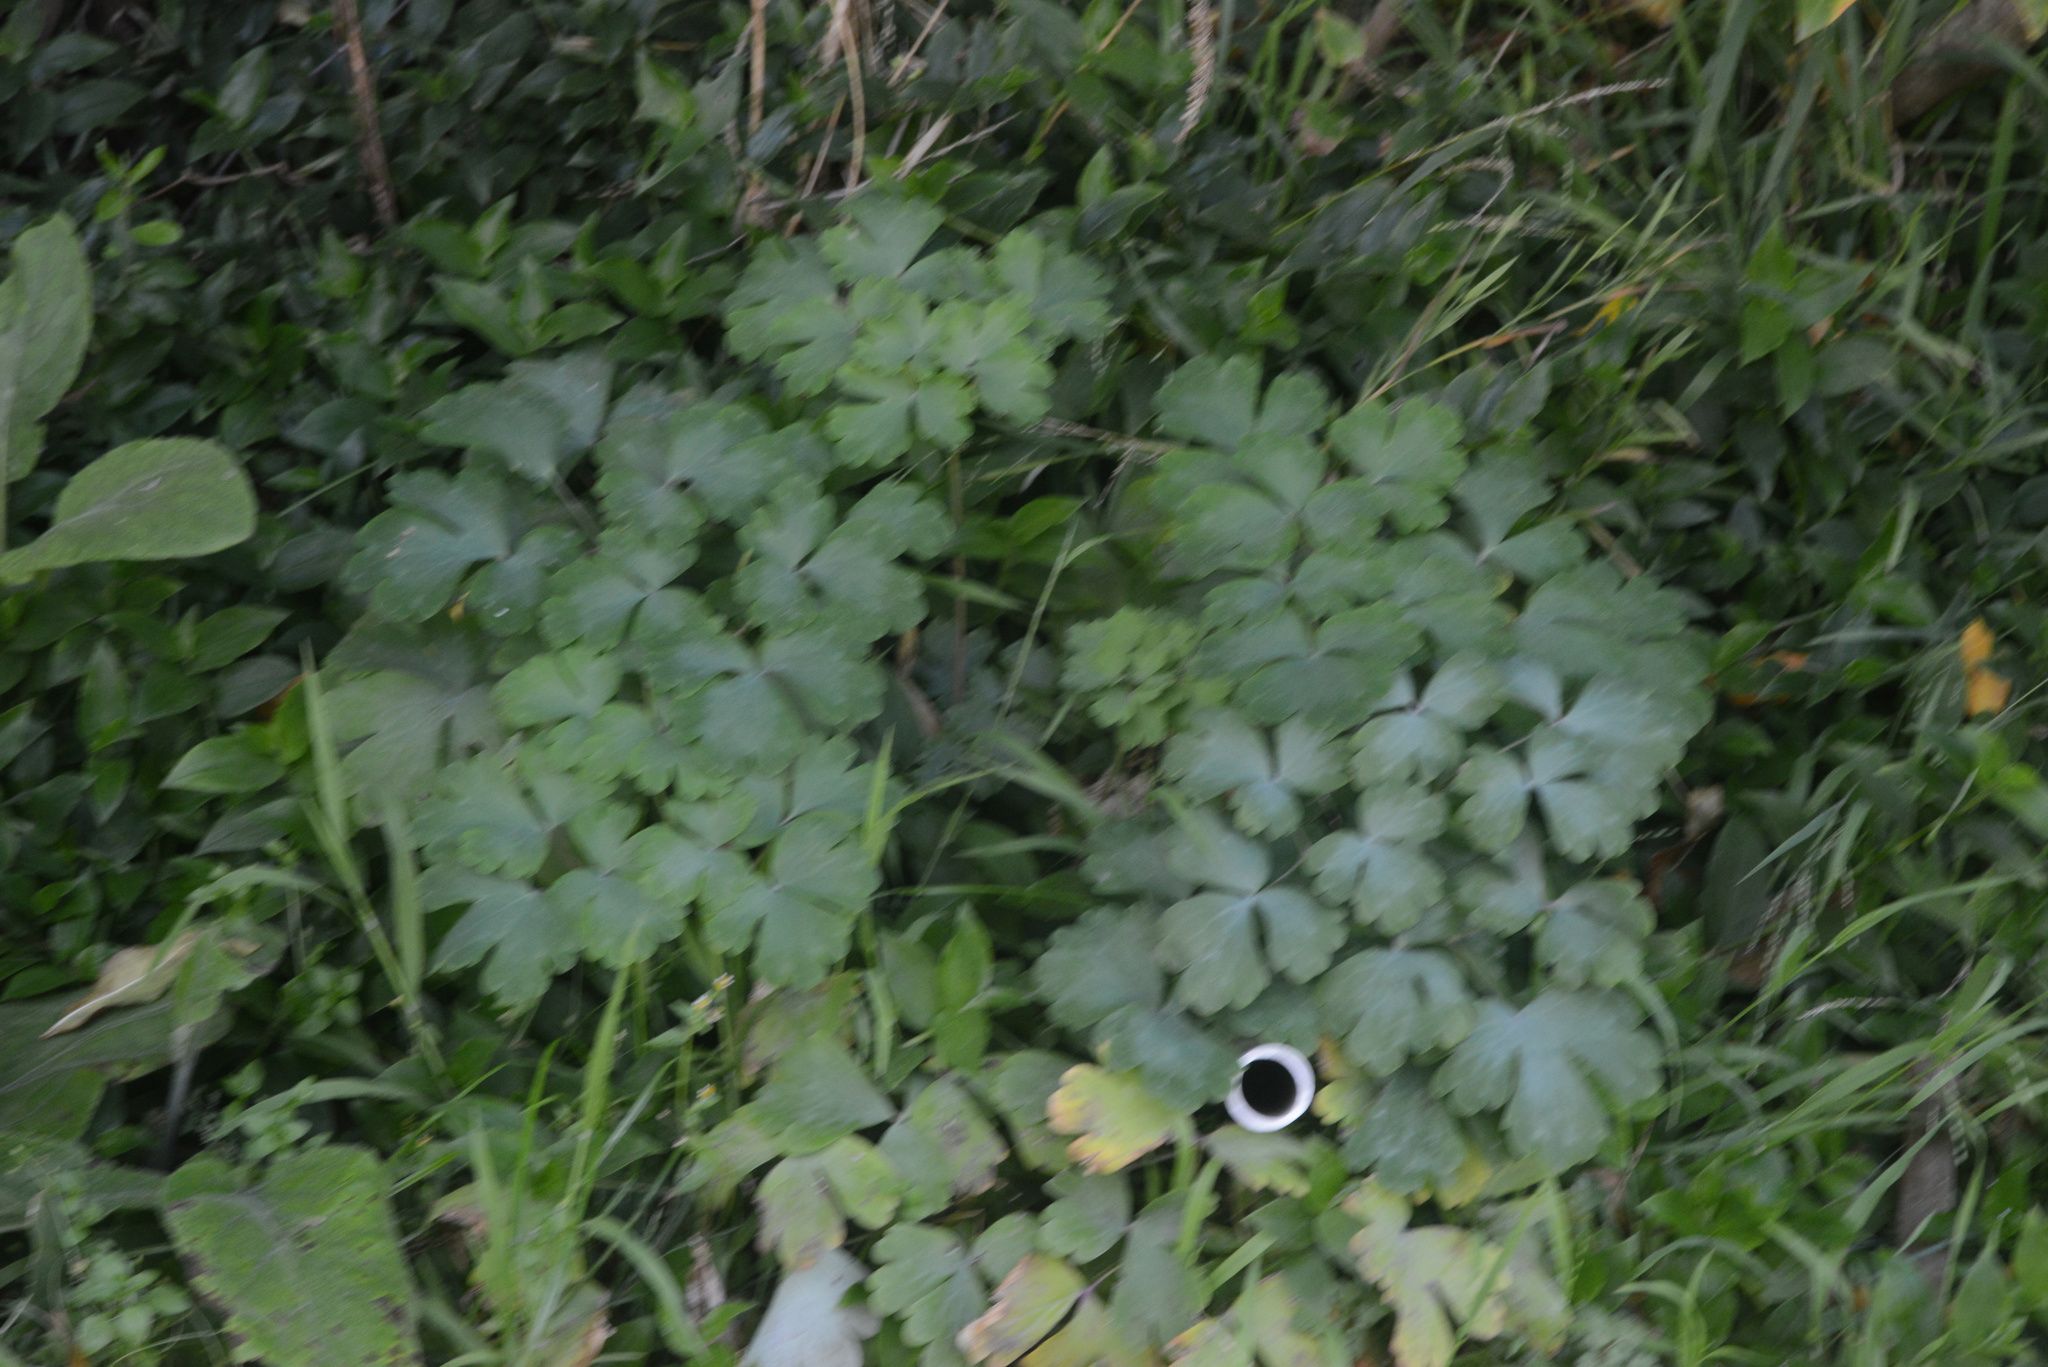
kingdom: Plantae
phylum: Tracheophyta
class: Magnoliopsida
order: Ranunculales
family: Ranunculaceae
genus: Aquilegia
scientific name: Aquilegia vulgaris
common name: Columbine
